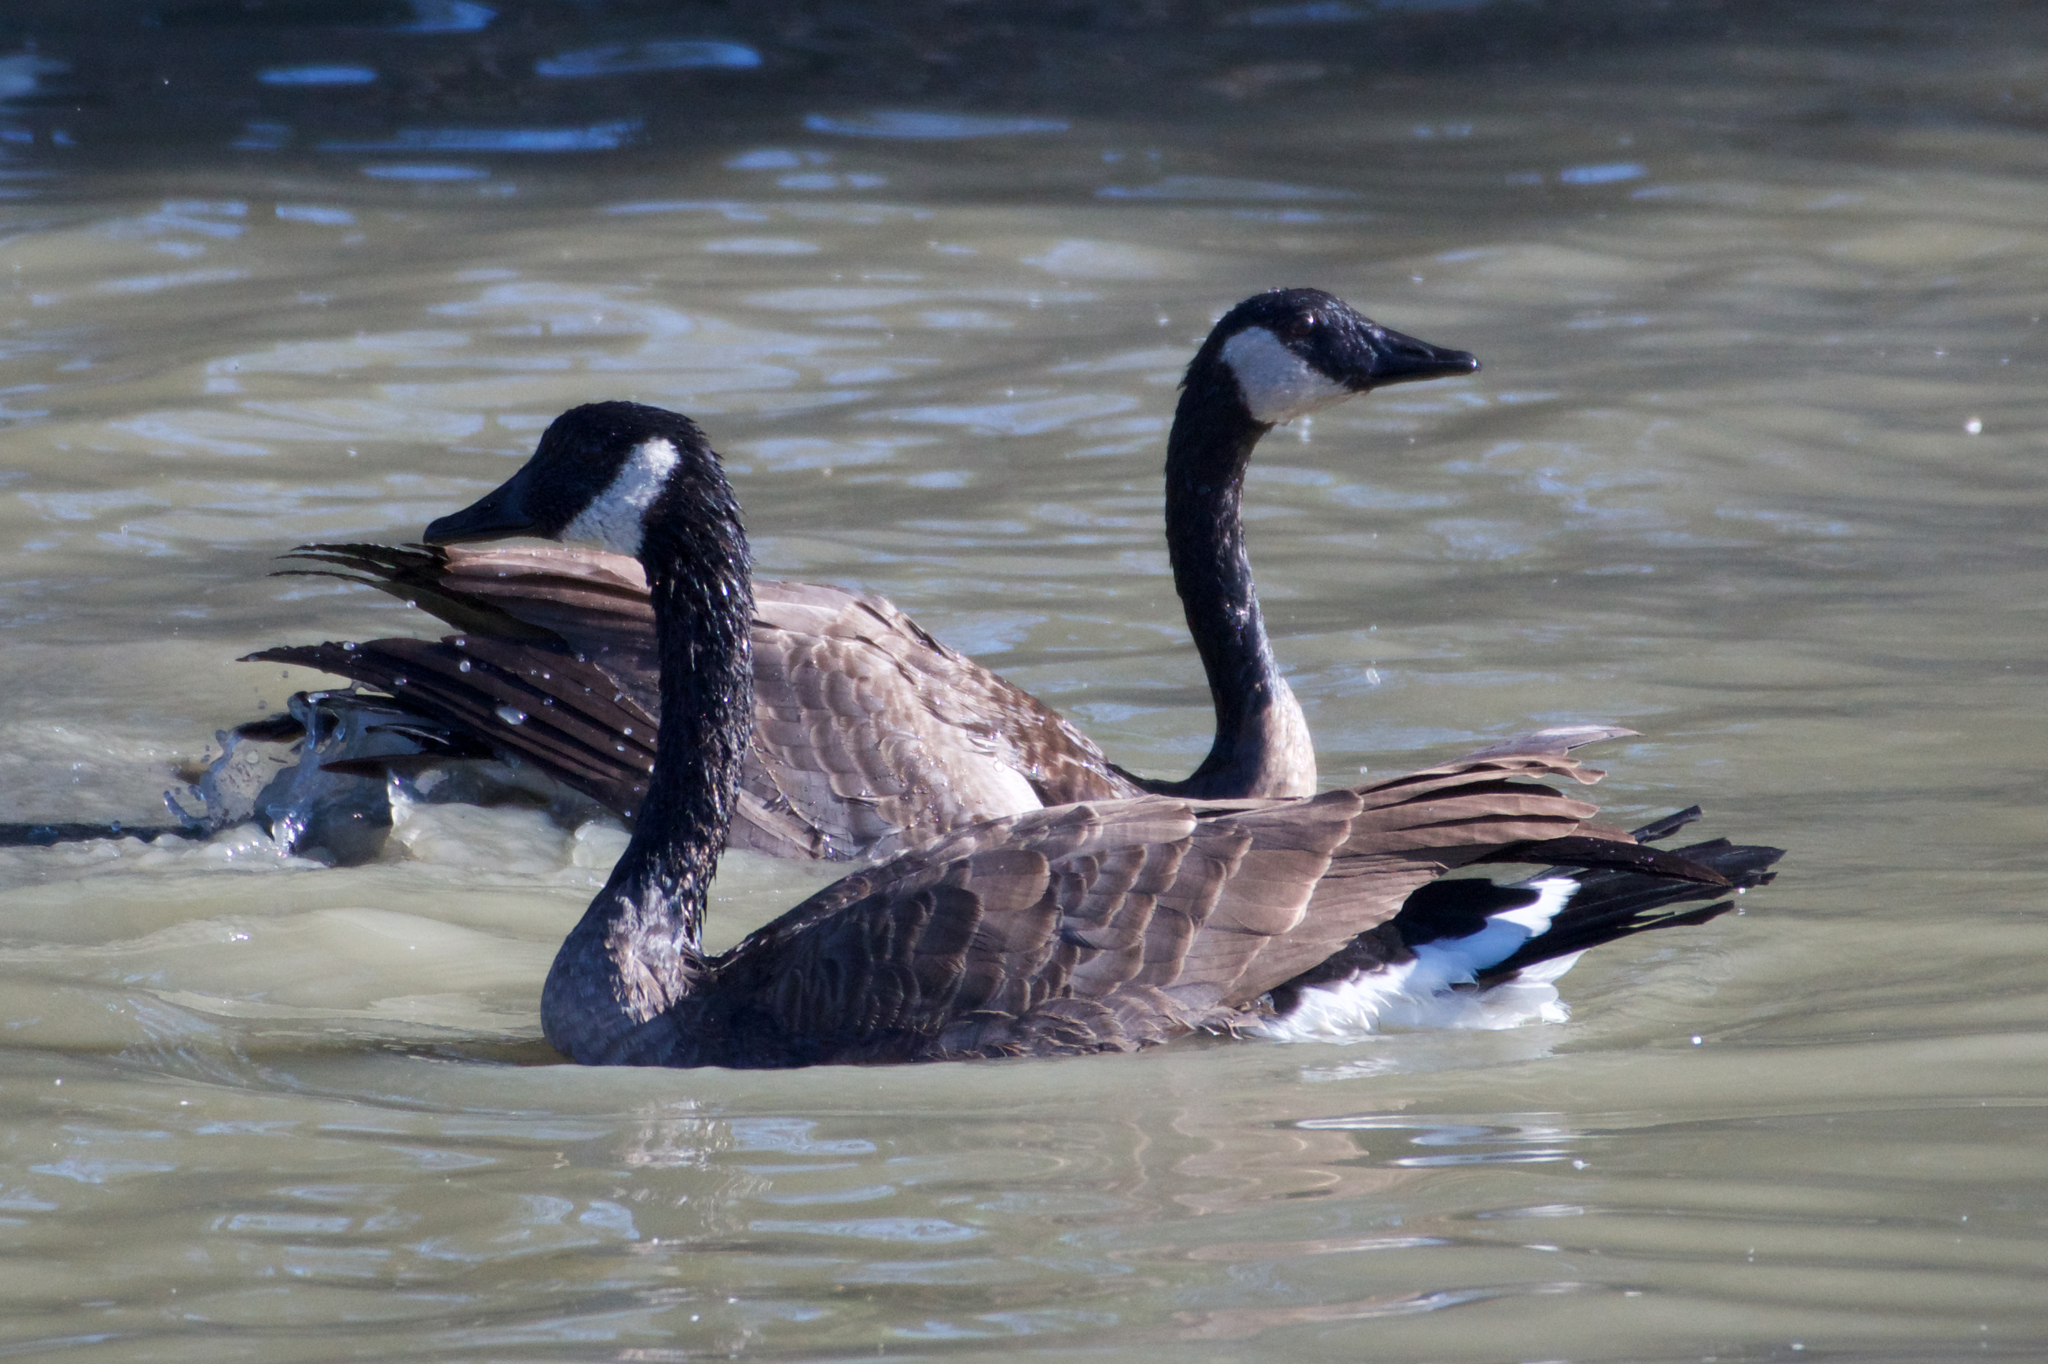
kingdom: Animalia
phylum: Chordata
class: Aves
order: Anseriformes
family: Anatidae
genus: Branta
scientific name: Branta canadensis
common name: Canada goose
